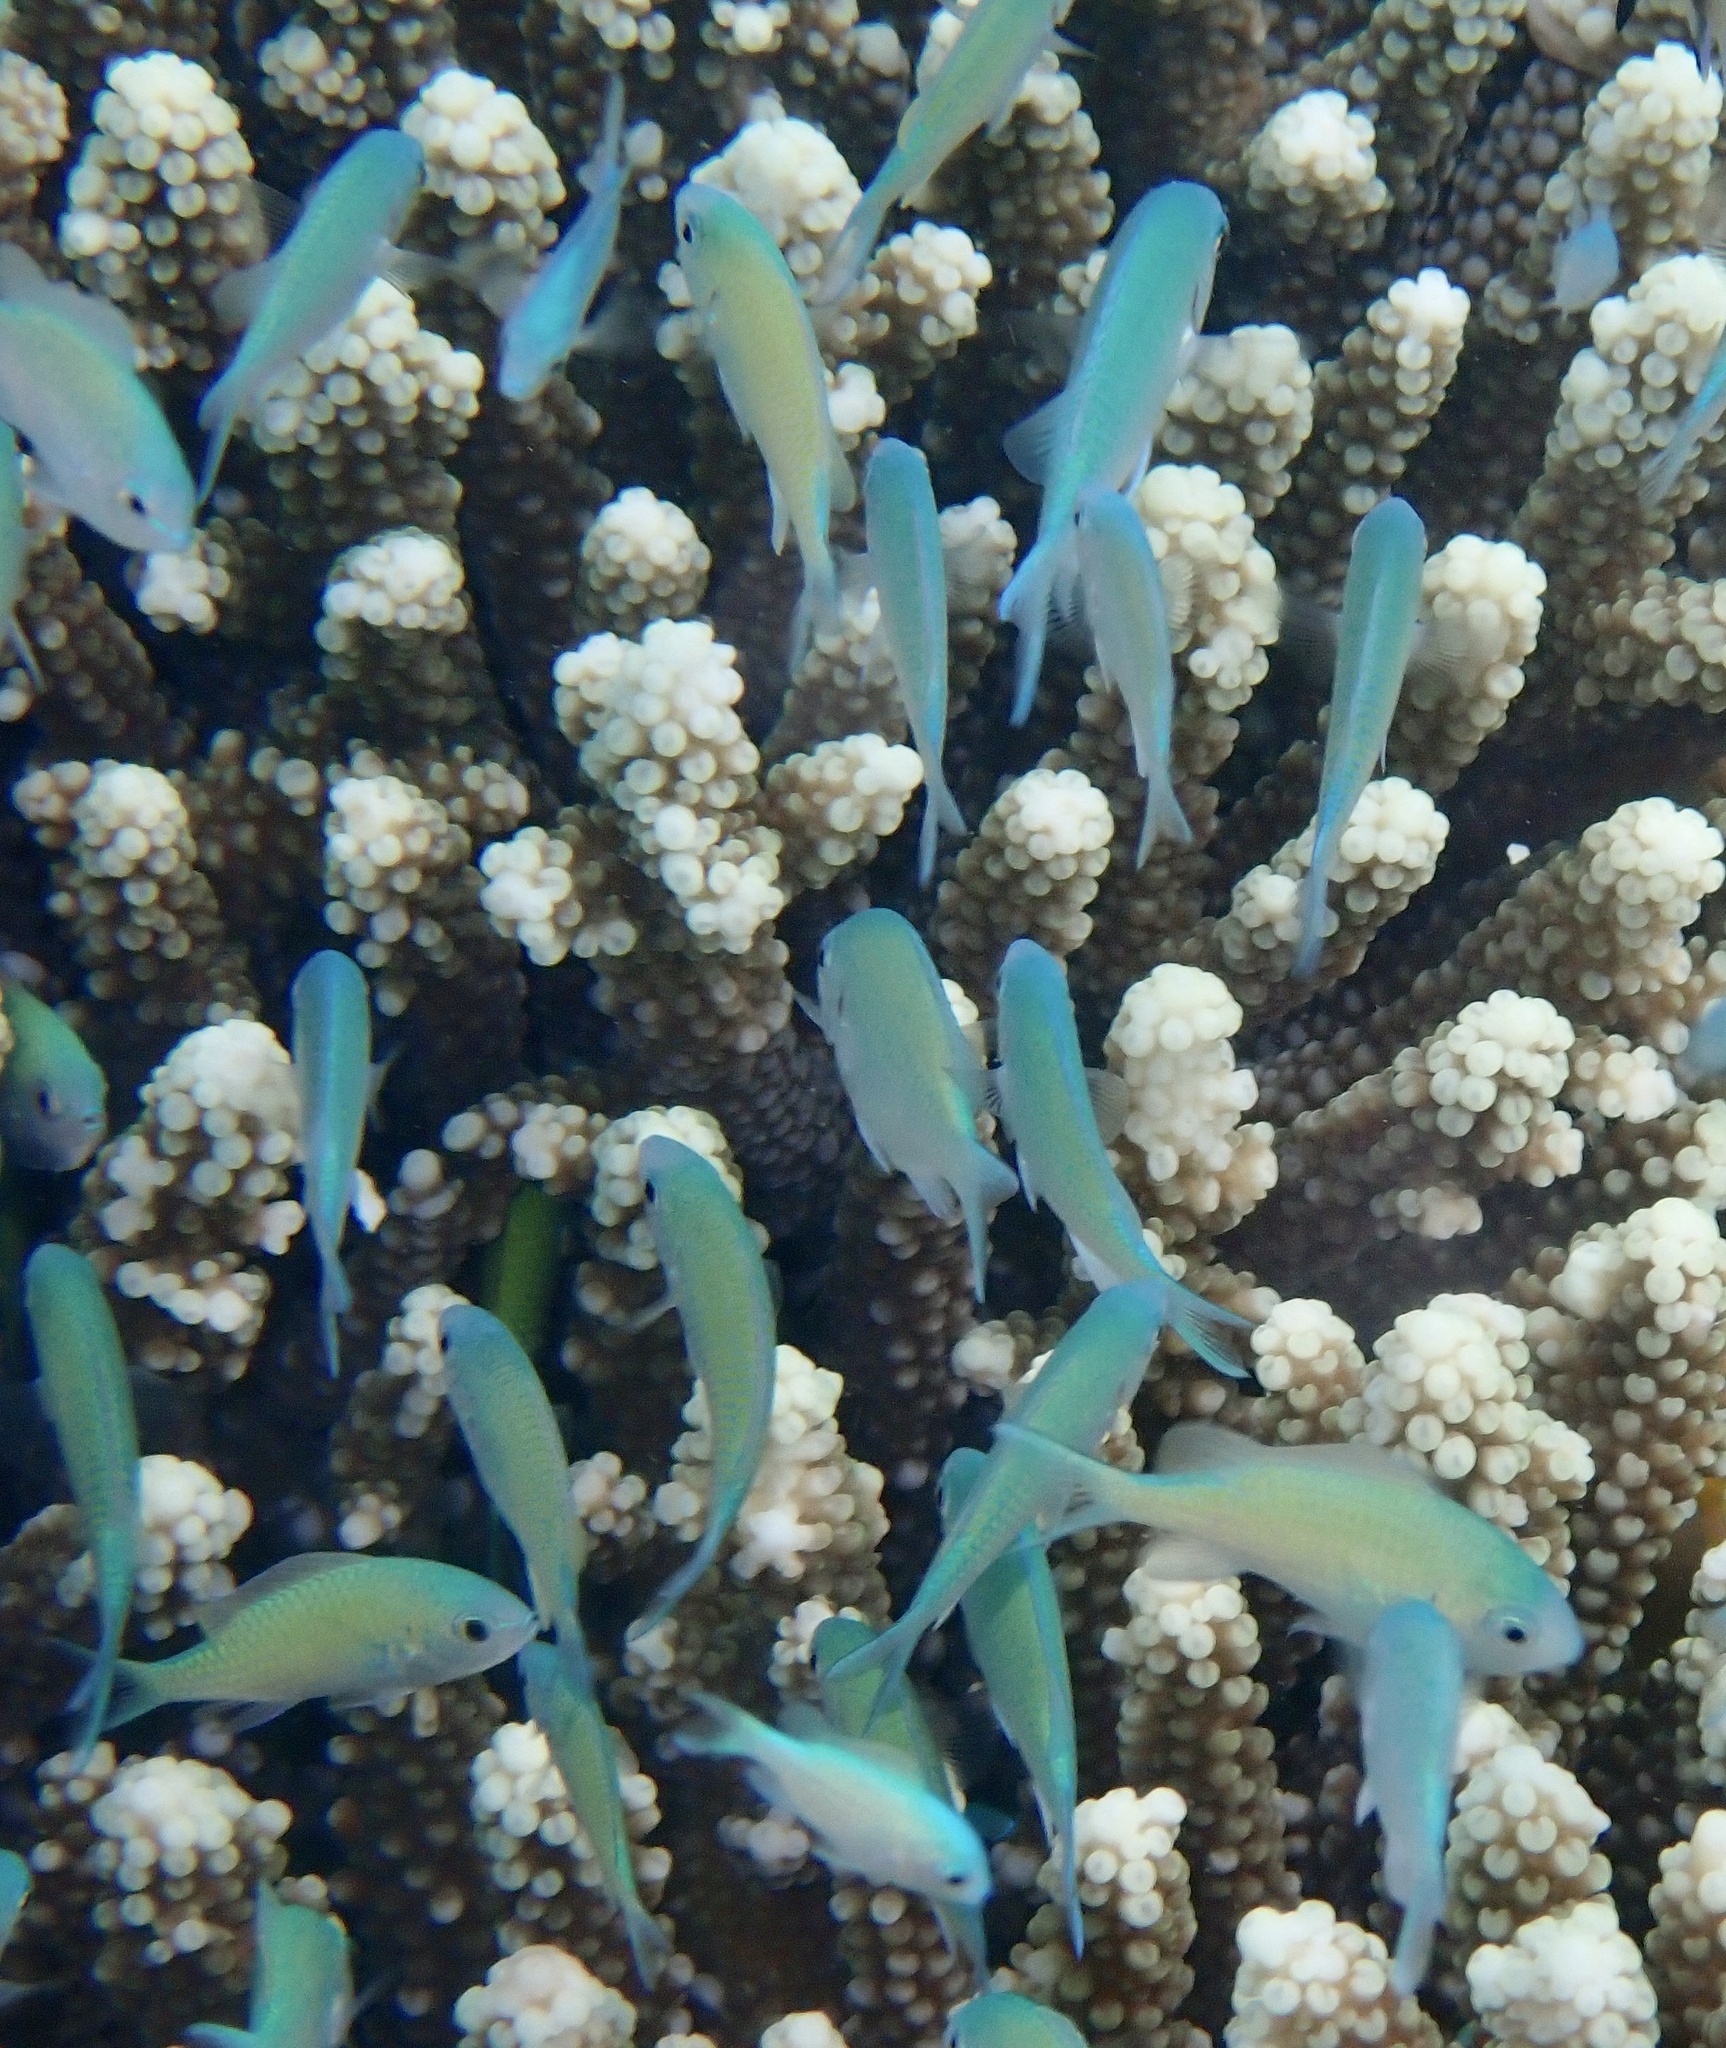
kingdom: Animalia
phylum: Chordata
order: Perciformes
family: Pomacentridae
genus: Chromis
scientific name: Chromis viridis
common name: Blue-green chromis
